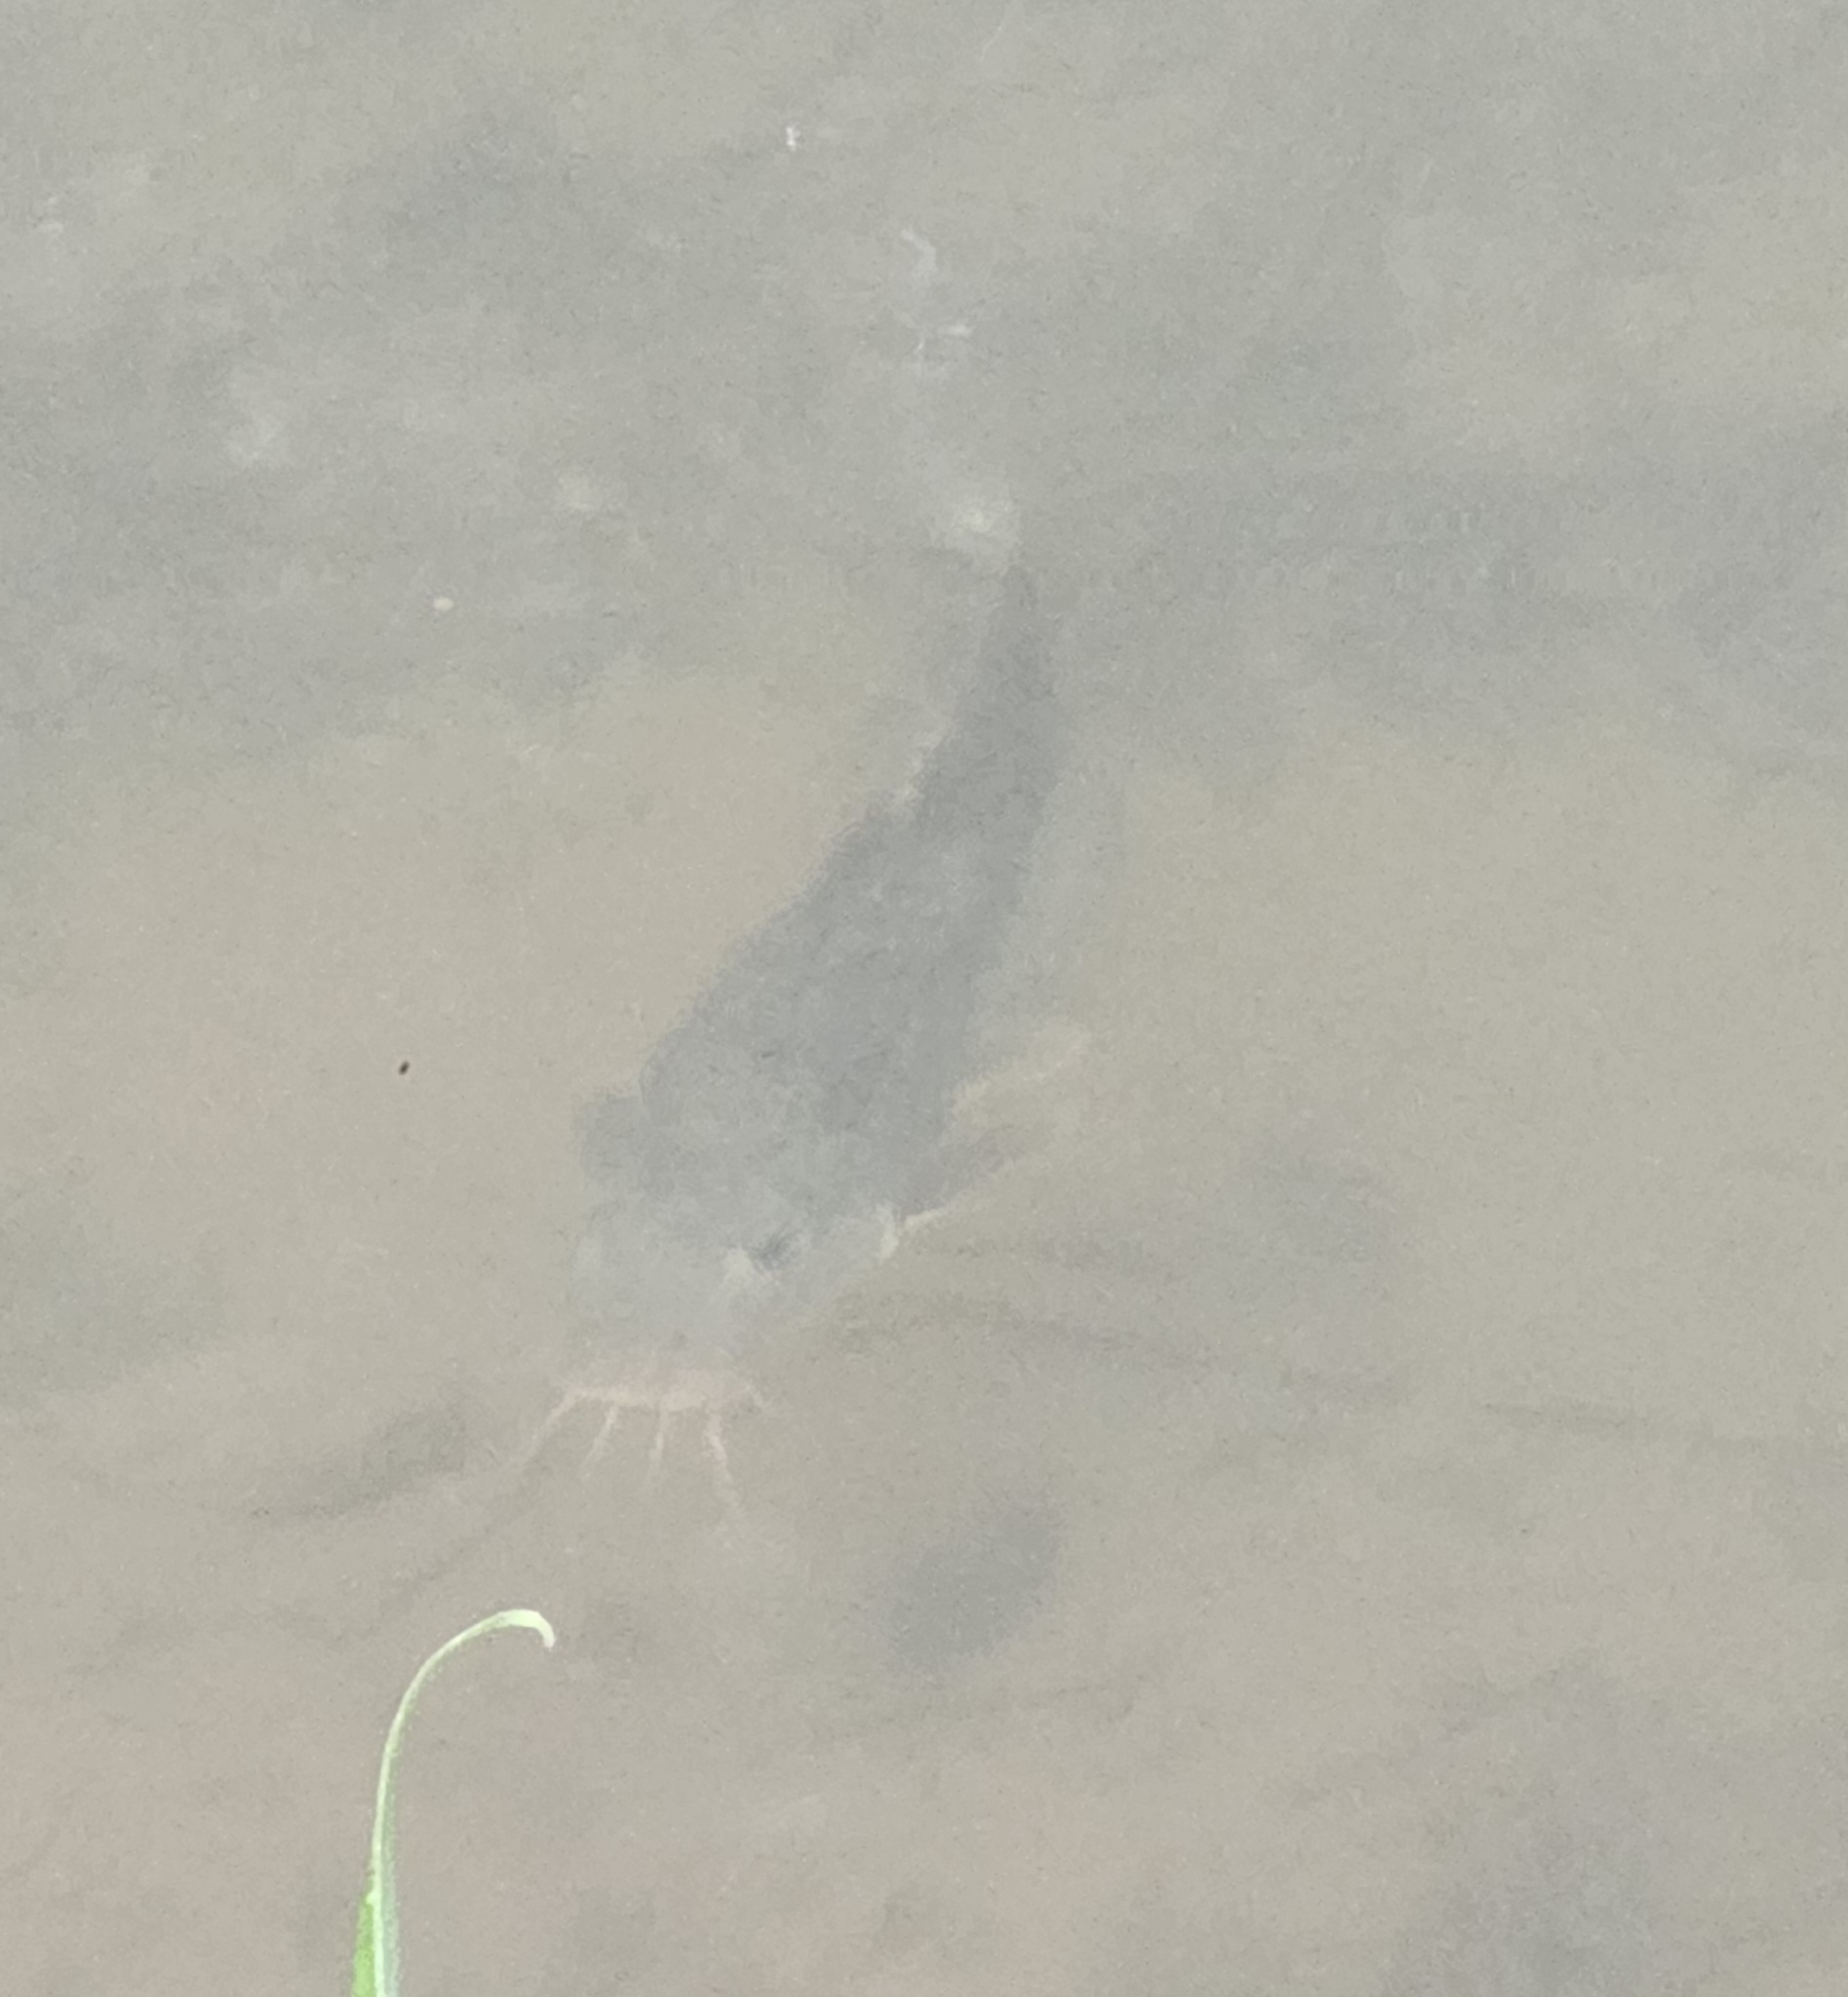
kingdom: Animalia
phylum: Chordata
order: Siluriformes
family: Plotosidae
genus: Tandanus
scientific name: Tandanus tropicanus
